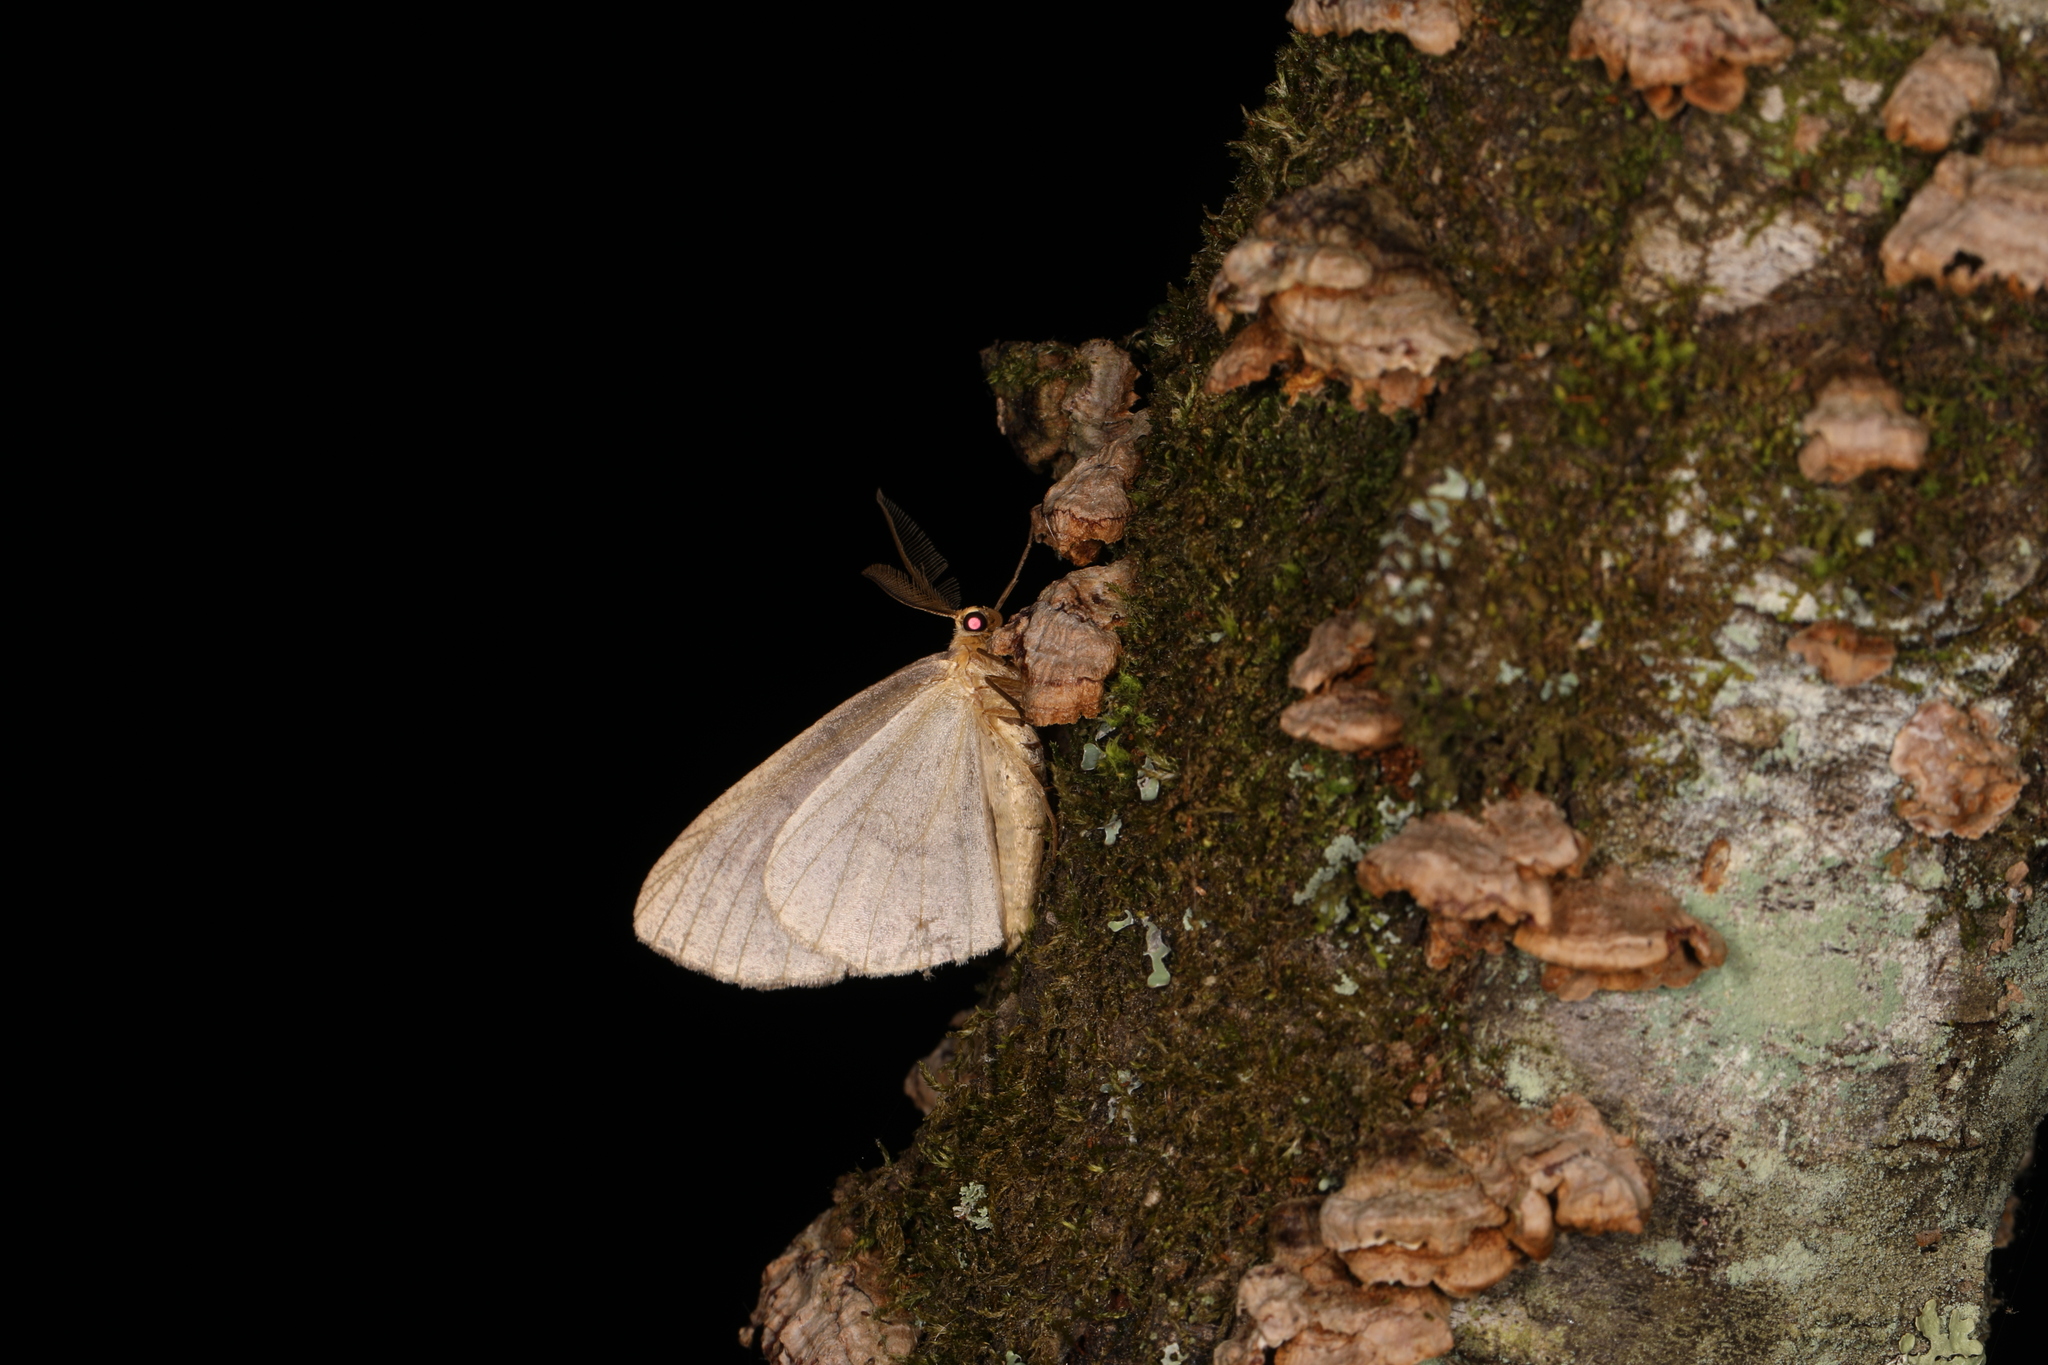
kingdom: Animalia
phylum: Arthropoda
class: Insecta
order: Lepidoptera
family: Geometridae
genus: Lambdina
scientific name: Lambdina fervidaria
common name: Curve-lined looper moth
